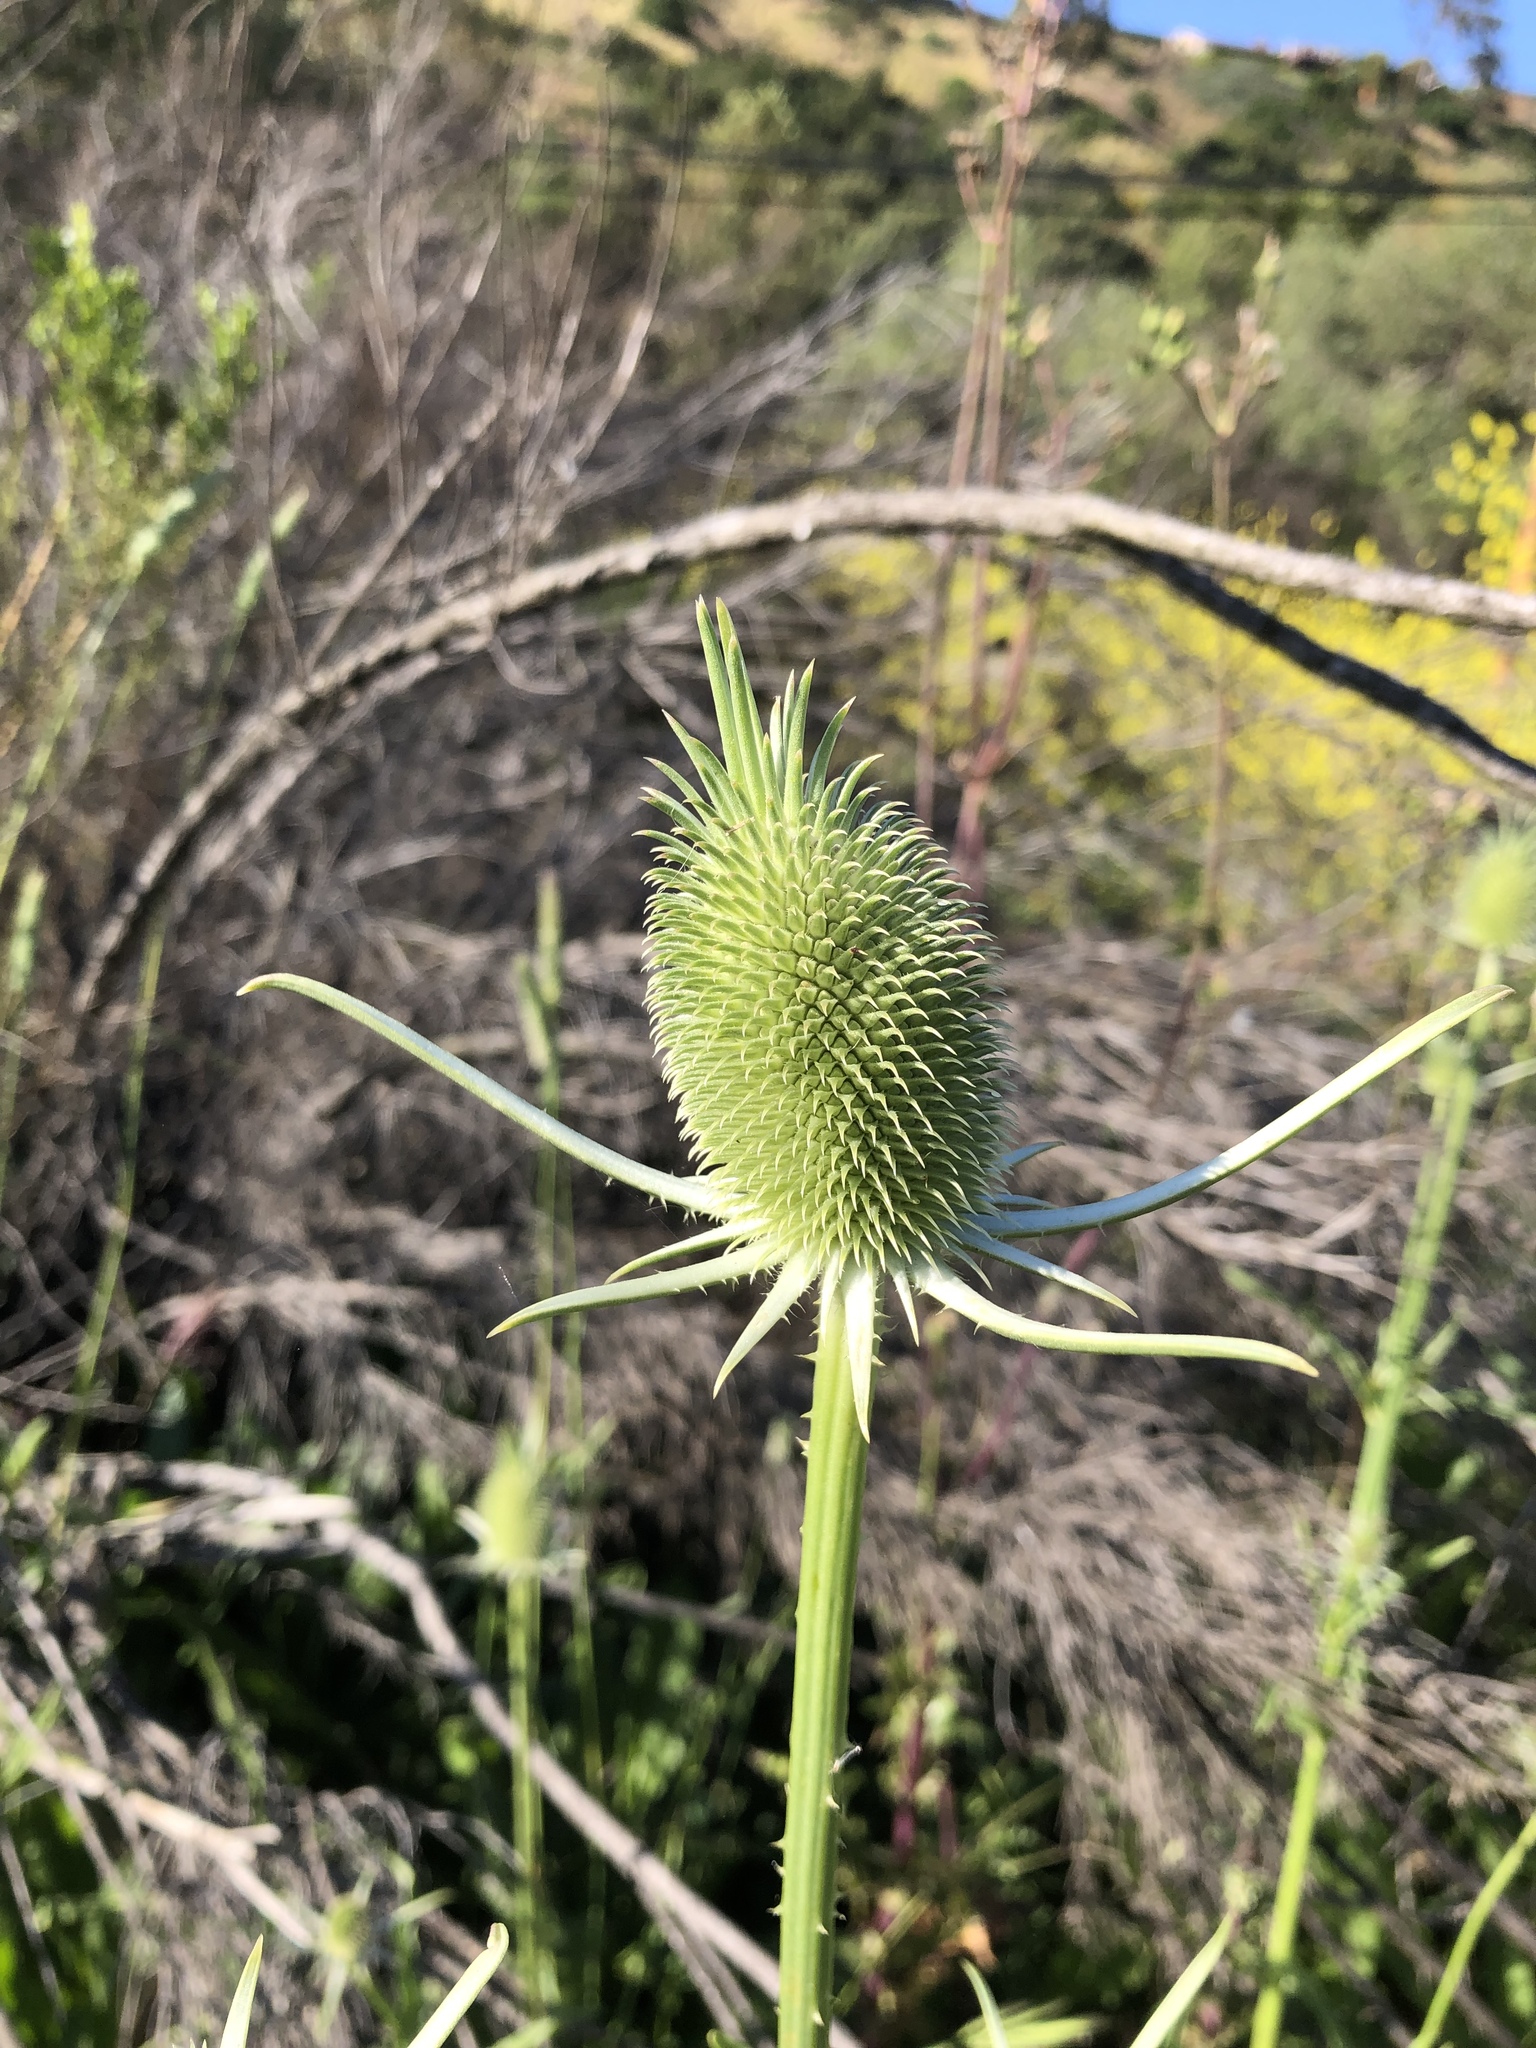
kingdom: Plantae
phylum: Tracheophyta
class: Magnoliopsida
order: Dipsacales
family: Caprifoliaceae
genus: Dipsacus
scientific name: Dipsacus sativus
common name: Fuller's teasel
